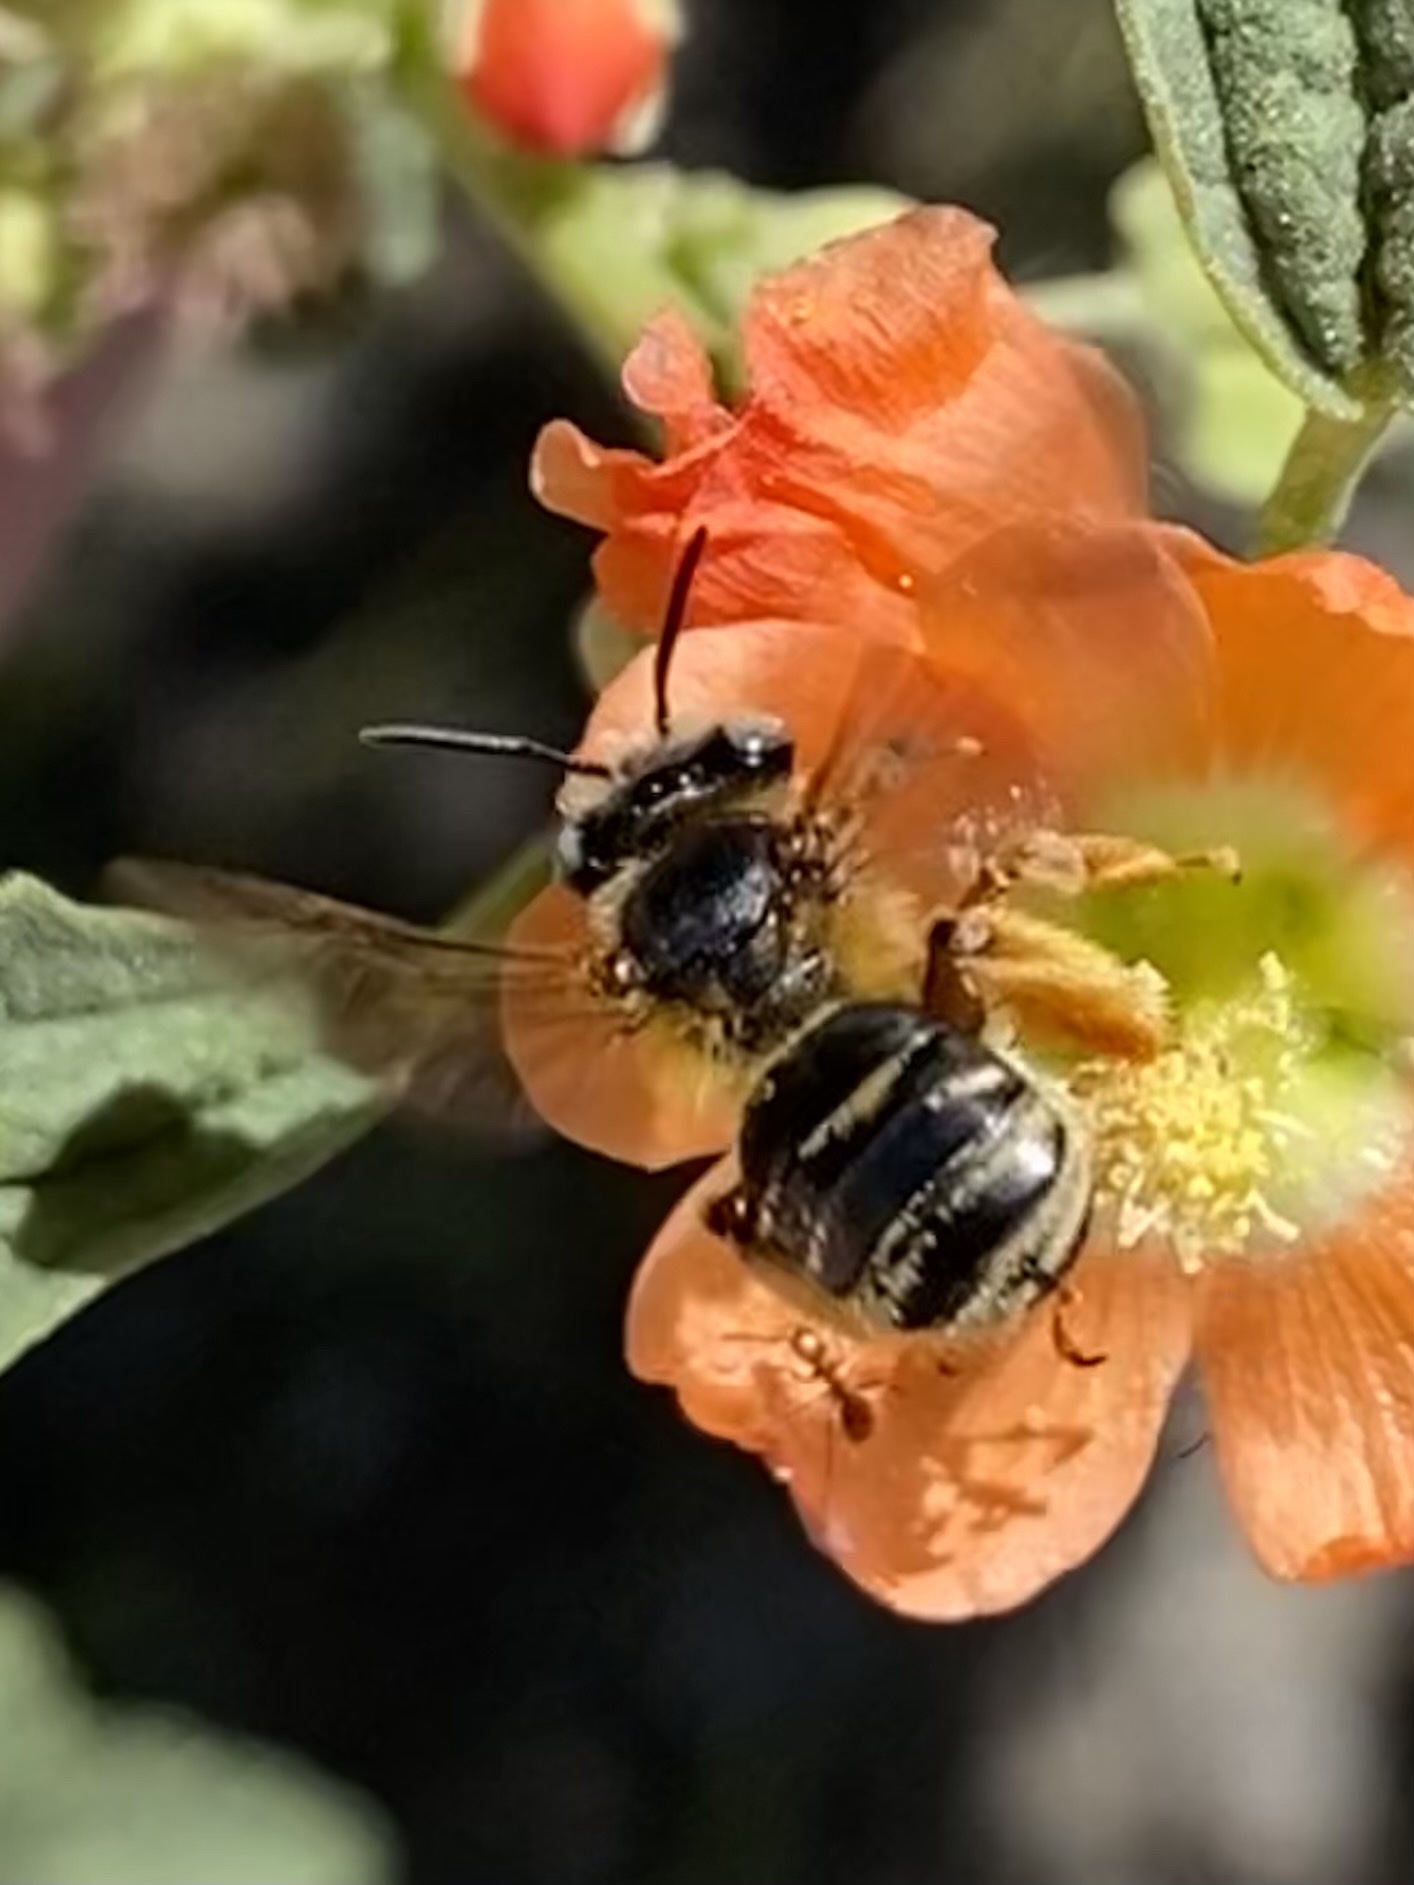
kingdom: Animalia
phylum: Arthropoda
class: Insecta
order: Hymenoptera
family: Apidae
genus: Melissodes
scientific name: Melissodes
